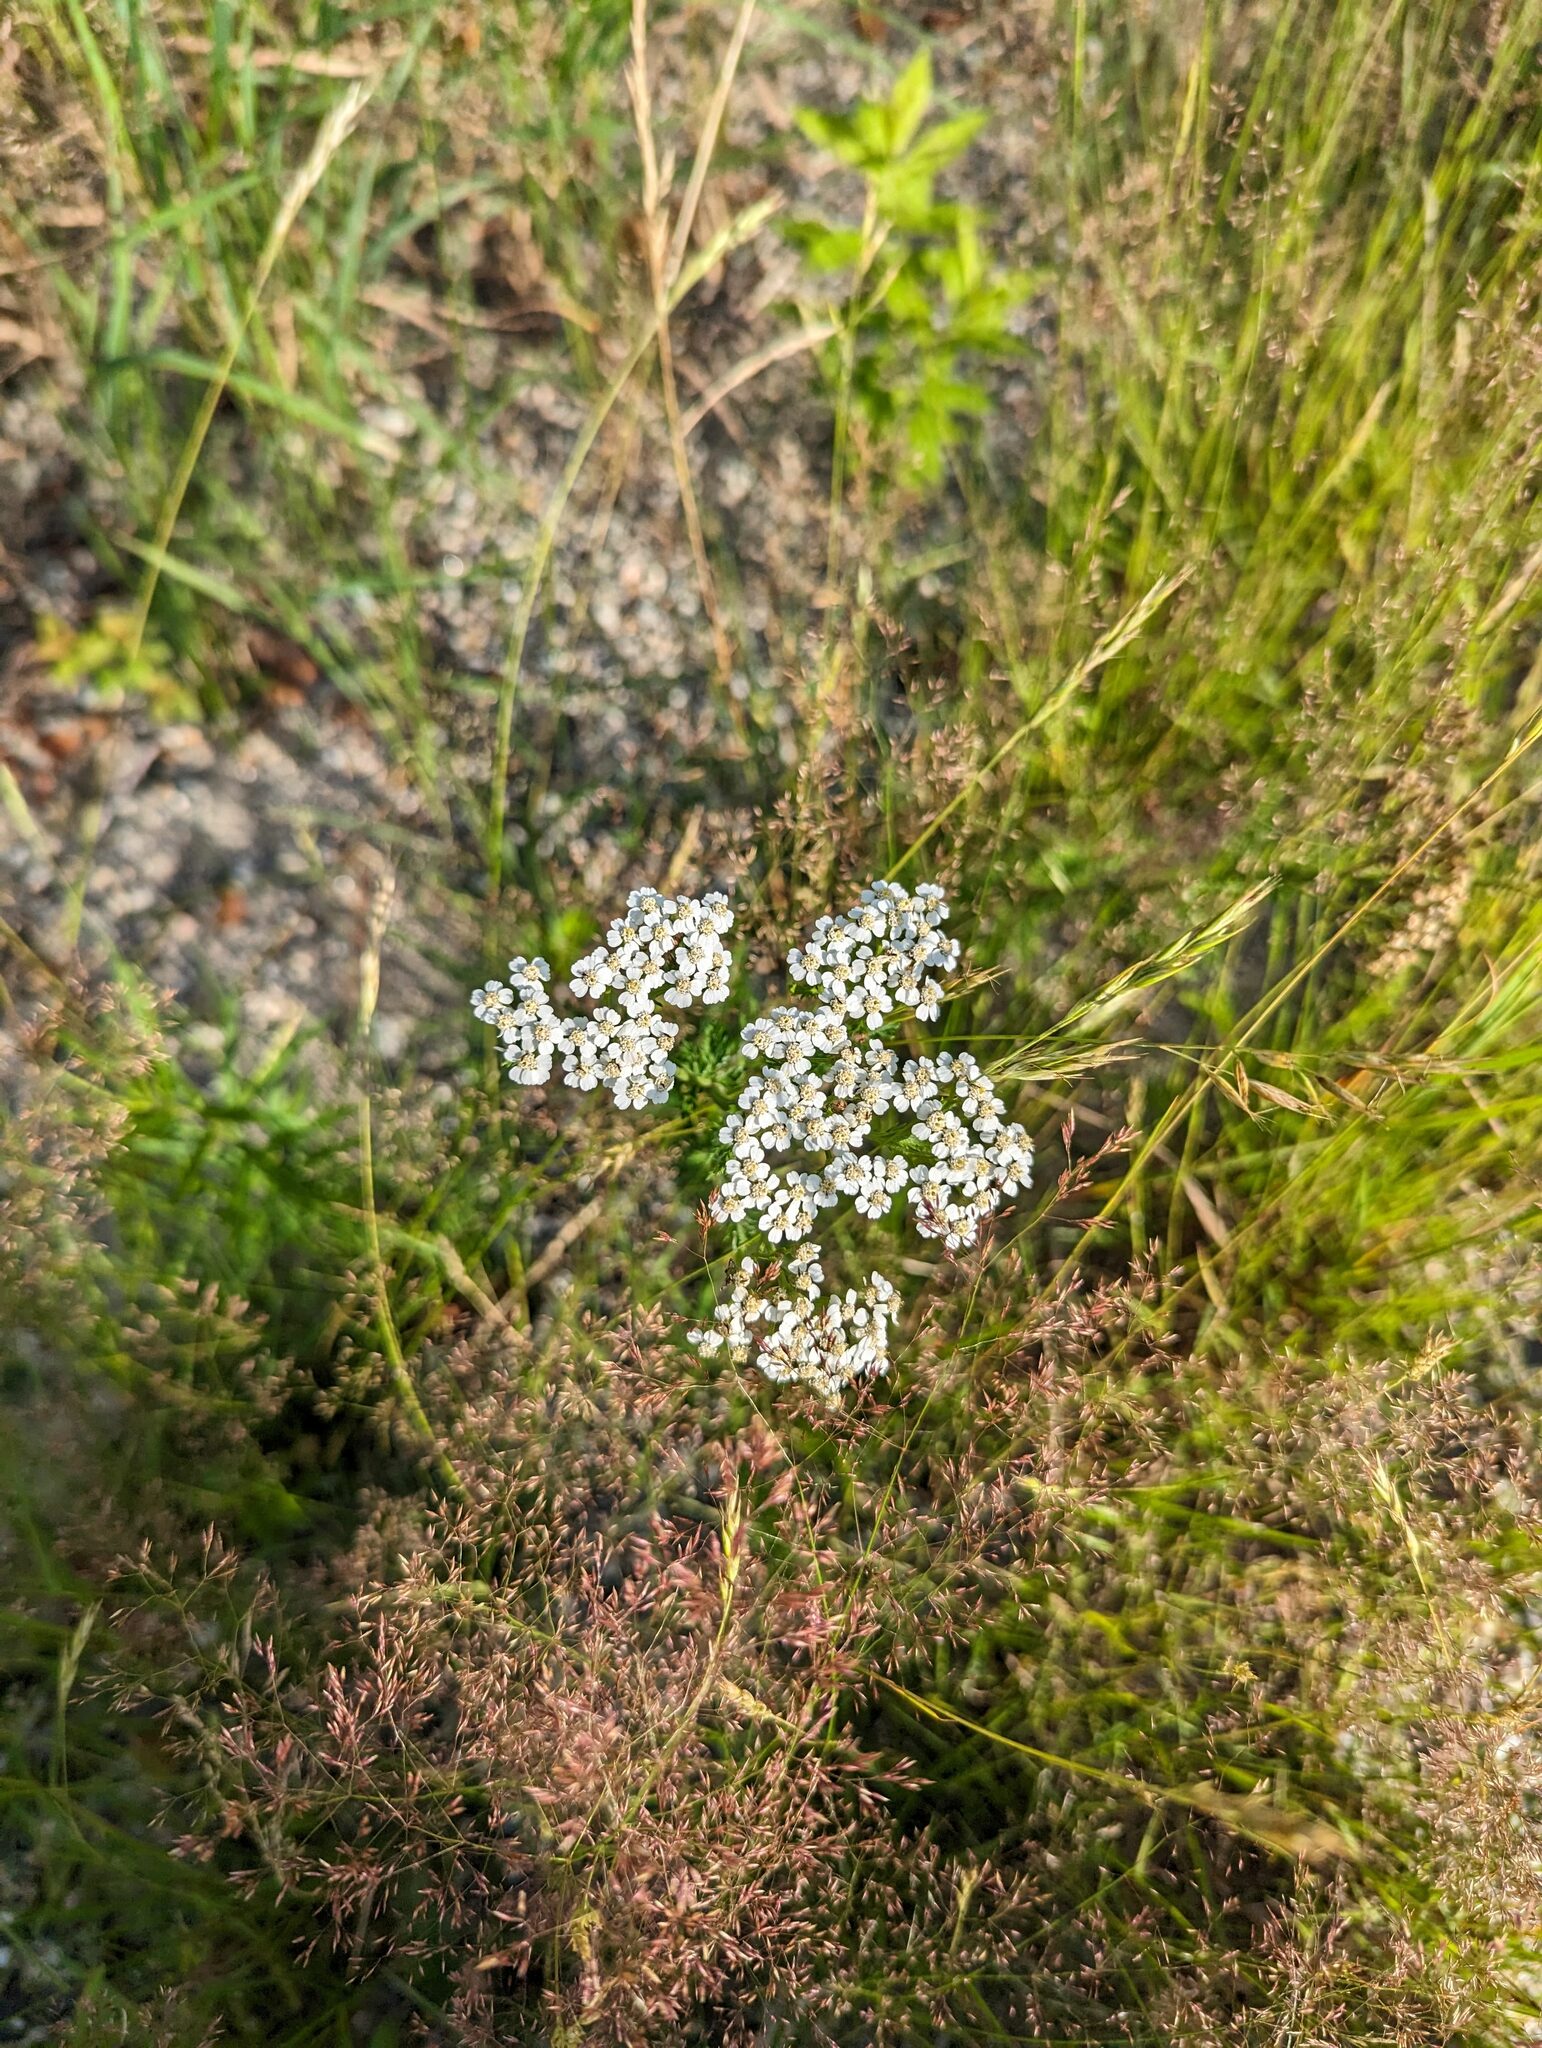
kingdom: Plantae
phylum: Tracheophyta
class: Magnoliopsida
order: Asterales
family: Asteraceae
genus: Achillea
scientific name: Achillea millefolium
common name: Yarrow
